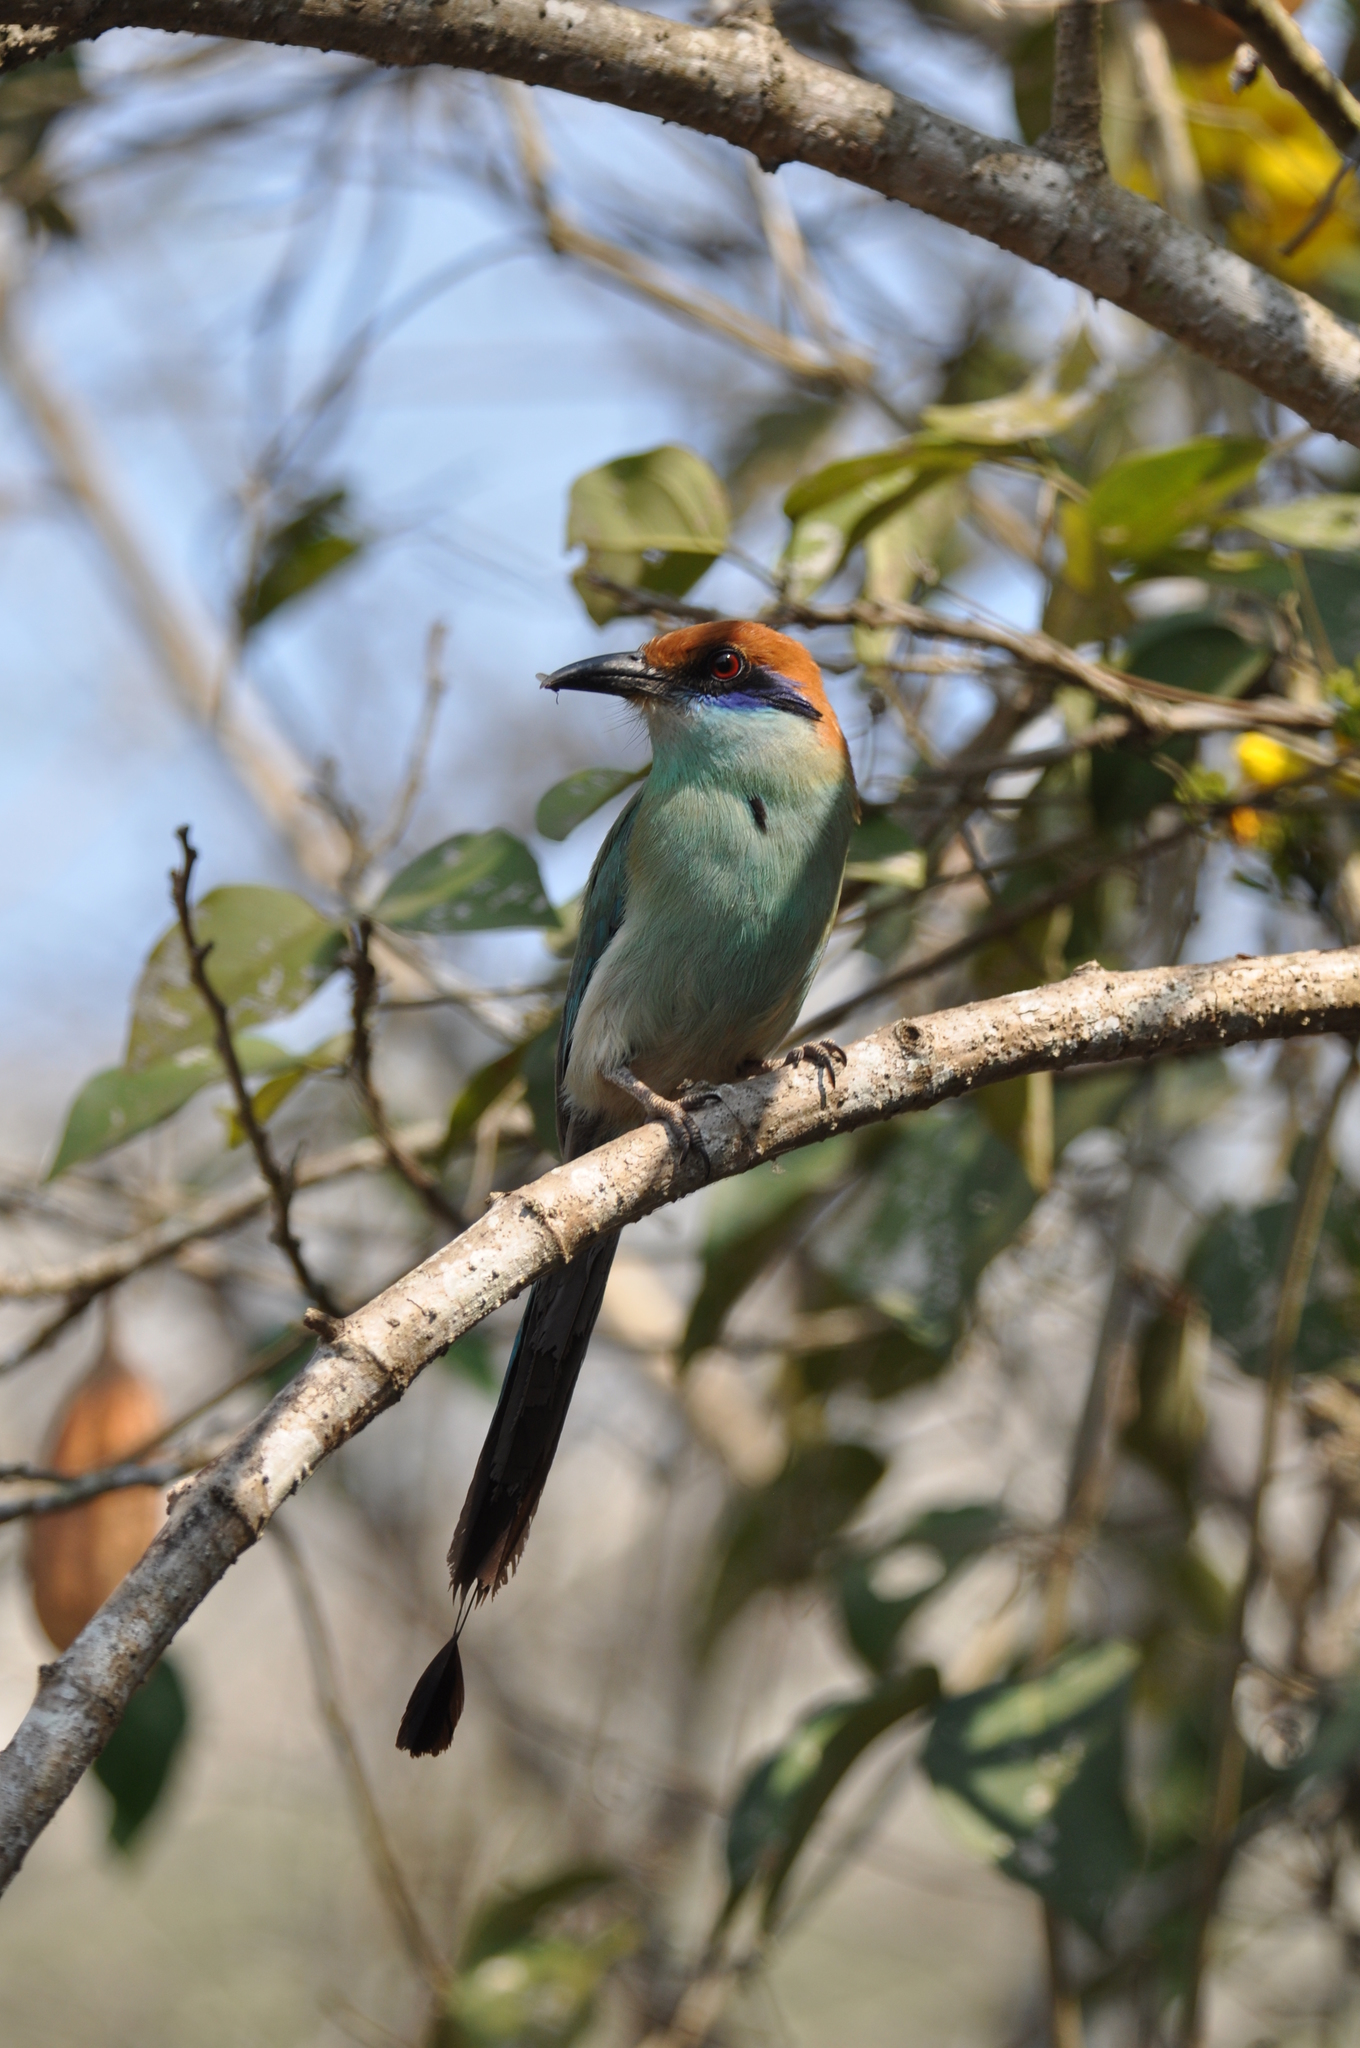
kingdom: Animalia
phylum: Chordata
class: Aves
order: Coraciiformes
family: Momotidae
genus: Momotus
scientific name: Momotus mexicanus
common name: Russet-crowned motmot
